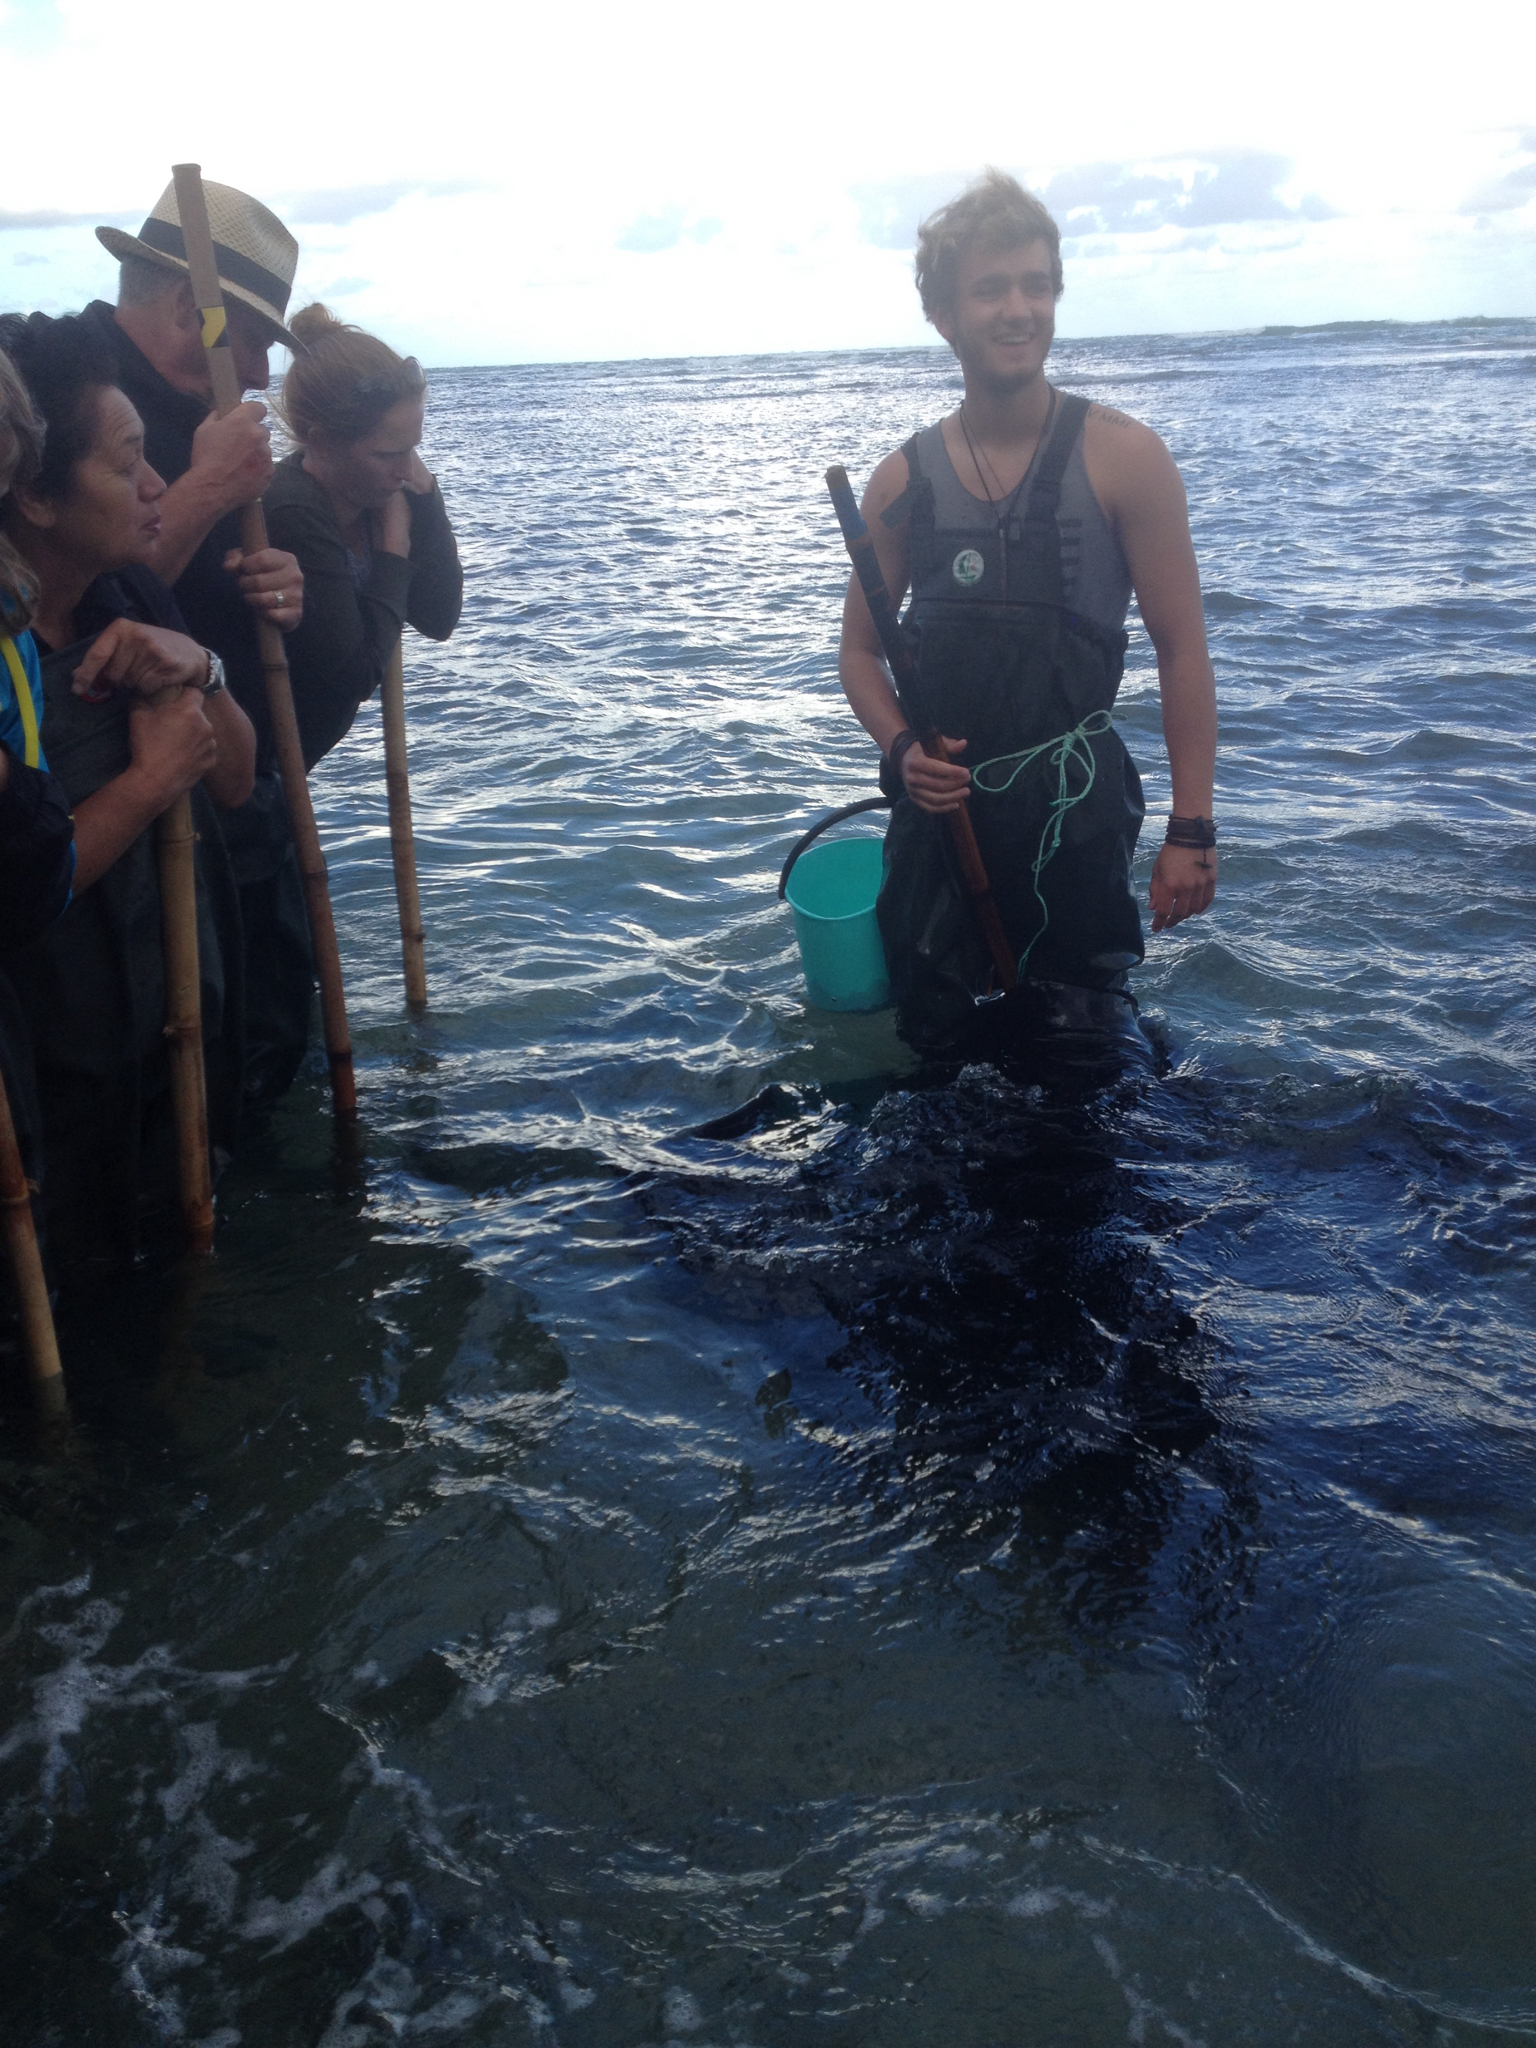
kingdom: Animalia
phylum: Chordata
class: Elasmobranchii
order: Myliobatiformes
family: Dasyatidae
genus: Bathytoshia
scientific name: Bathytoshia brevicaudata
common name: Short-tail stingray
